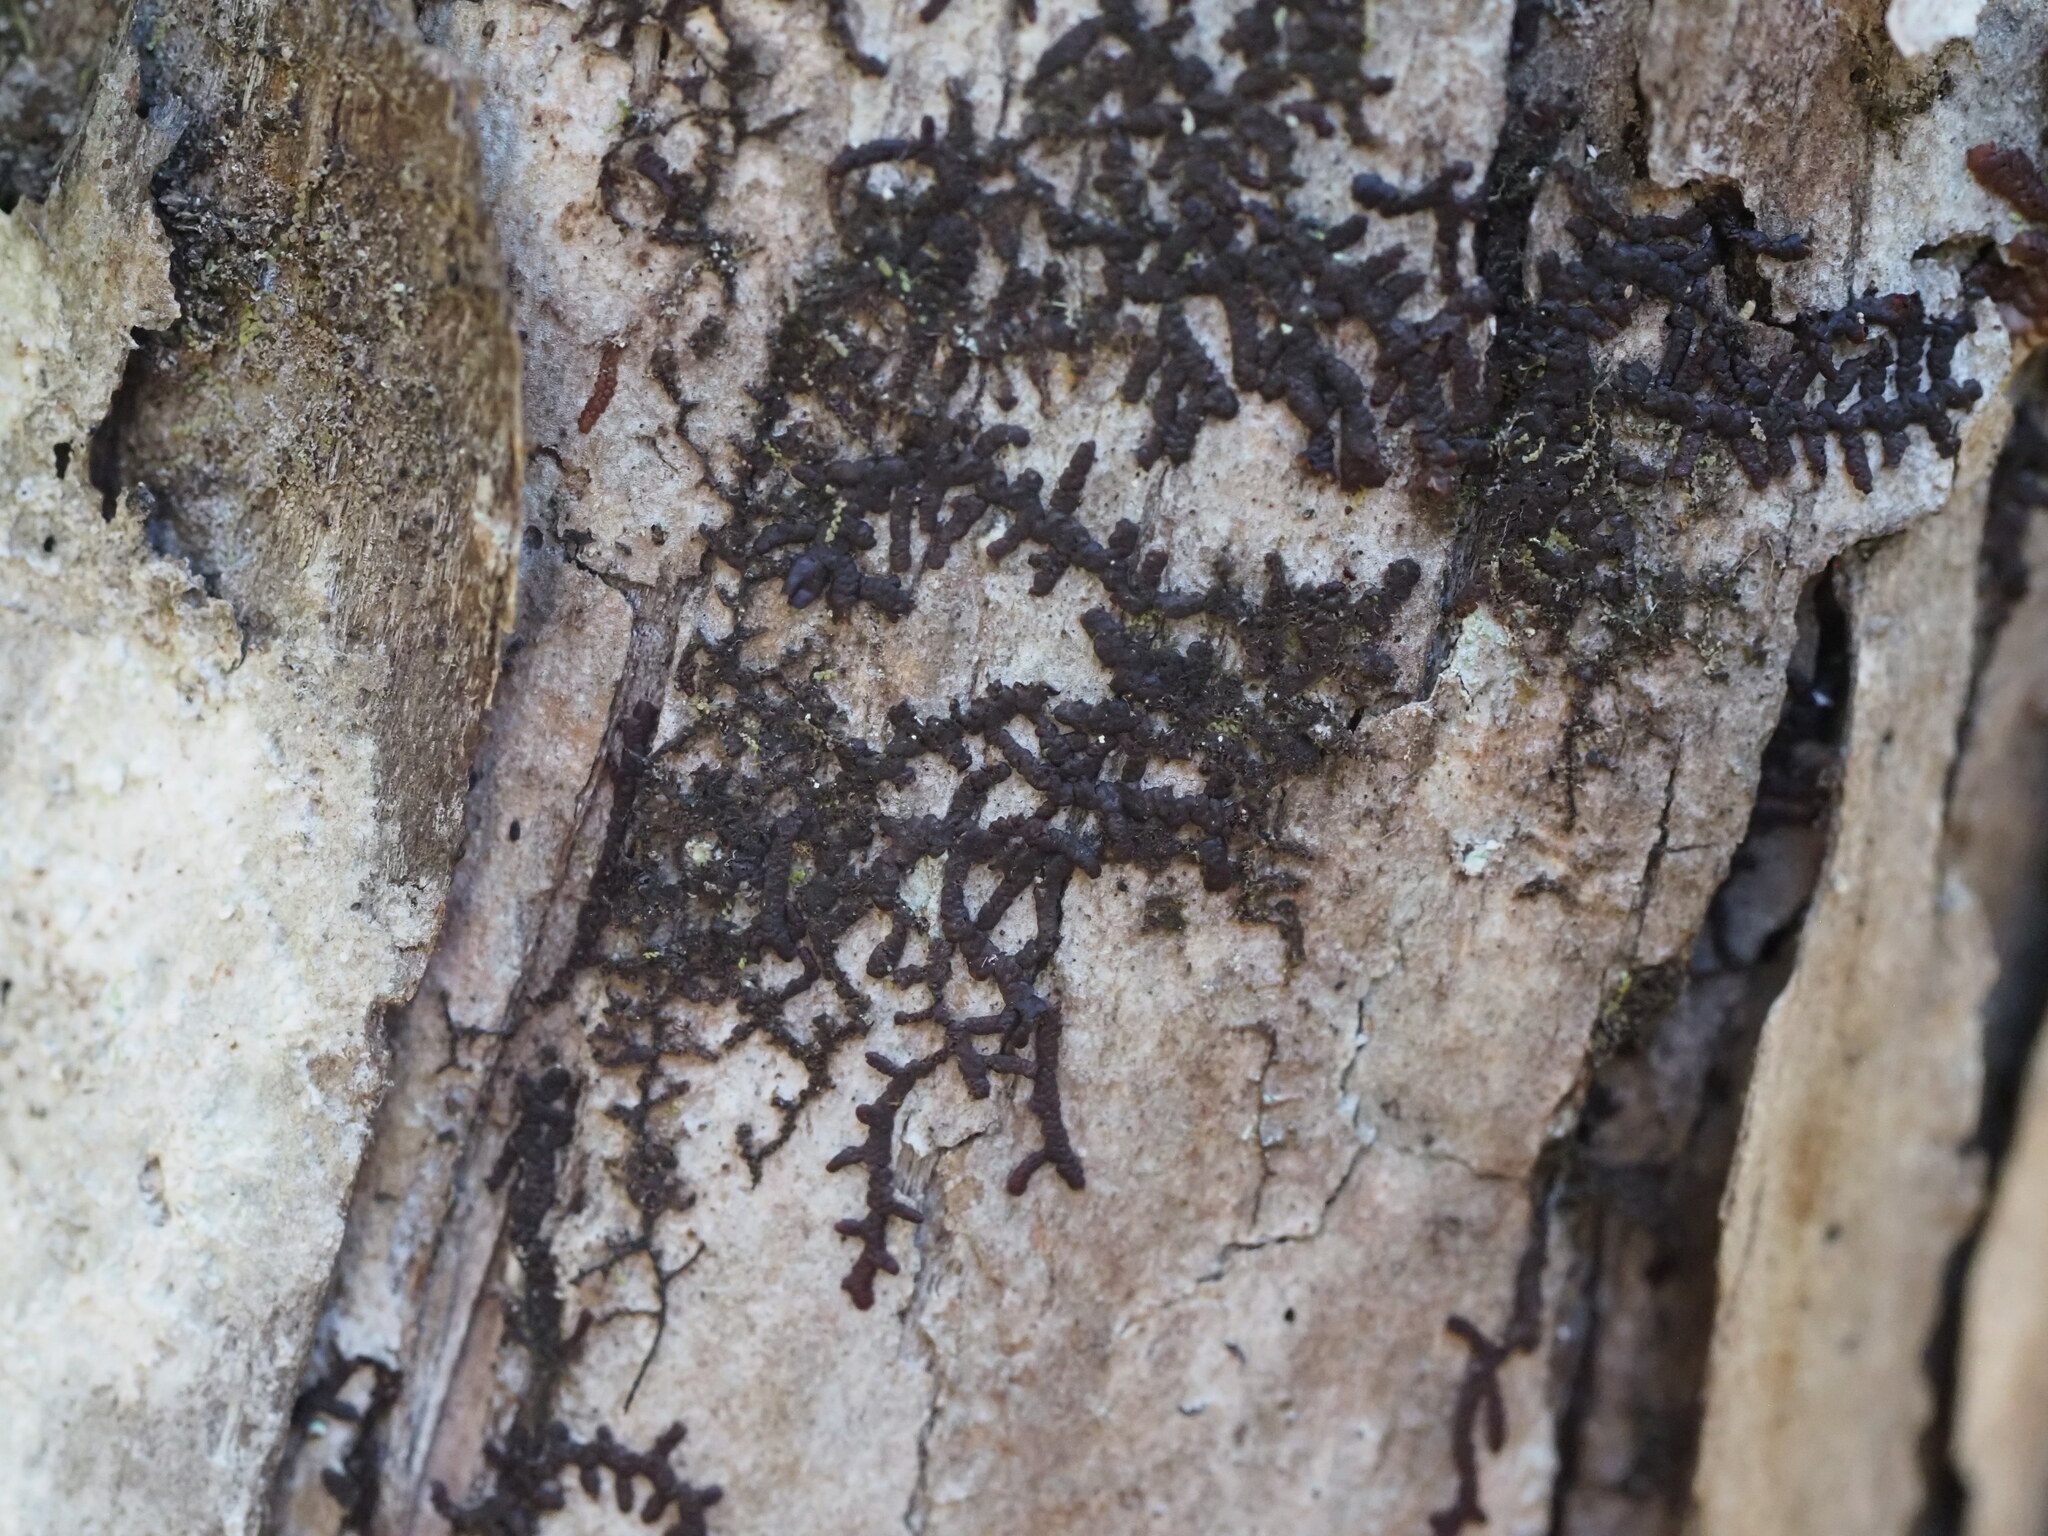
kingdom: Plantae
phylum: Marchantiophyta
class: Jungermanniopsida
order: Porellales
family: Frullaniaceae
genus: Frullania
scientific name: Frullania meyeniana
